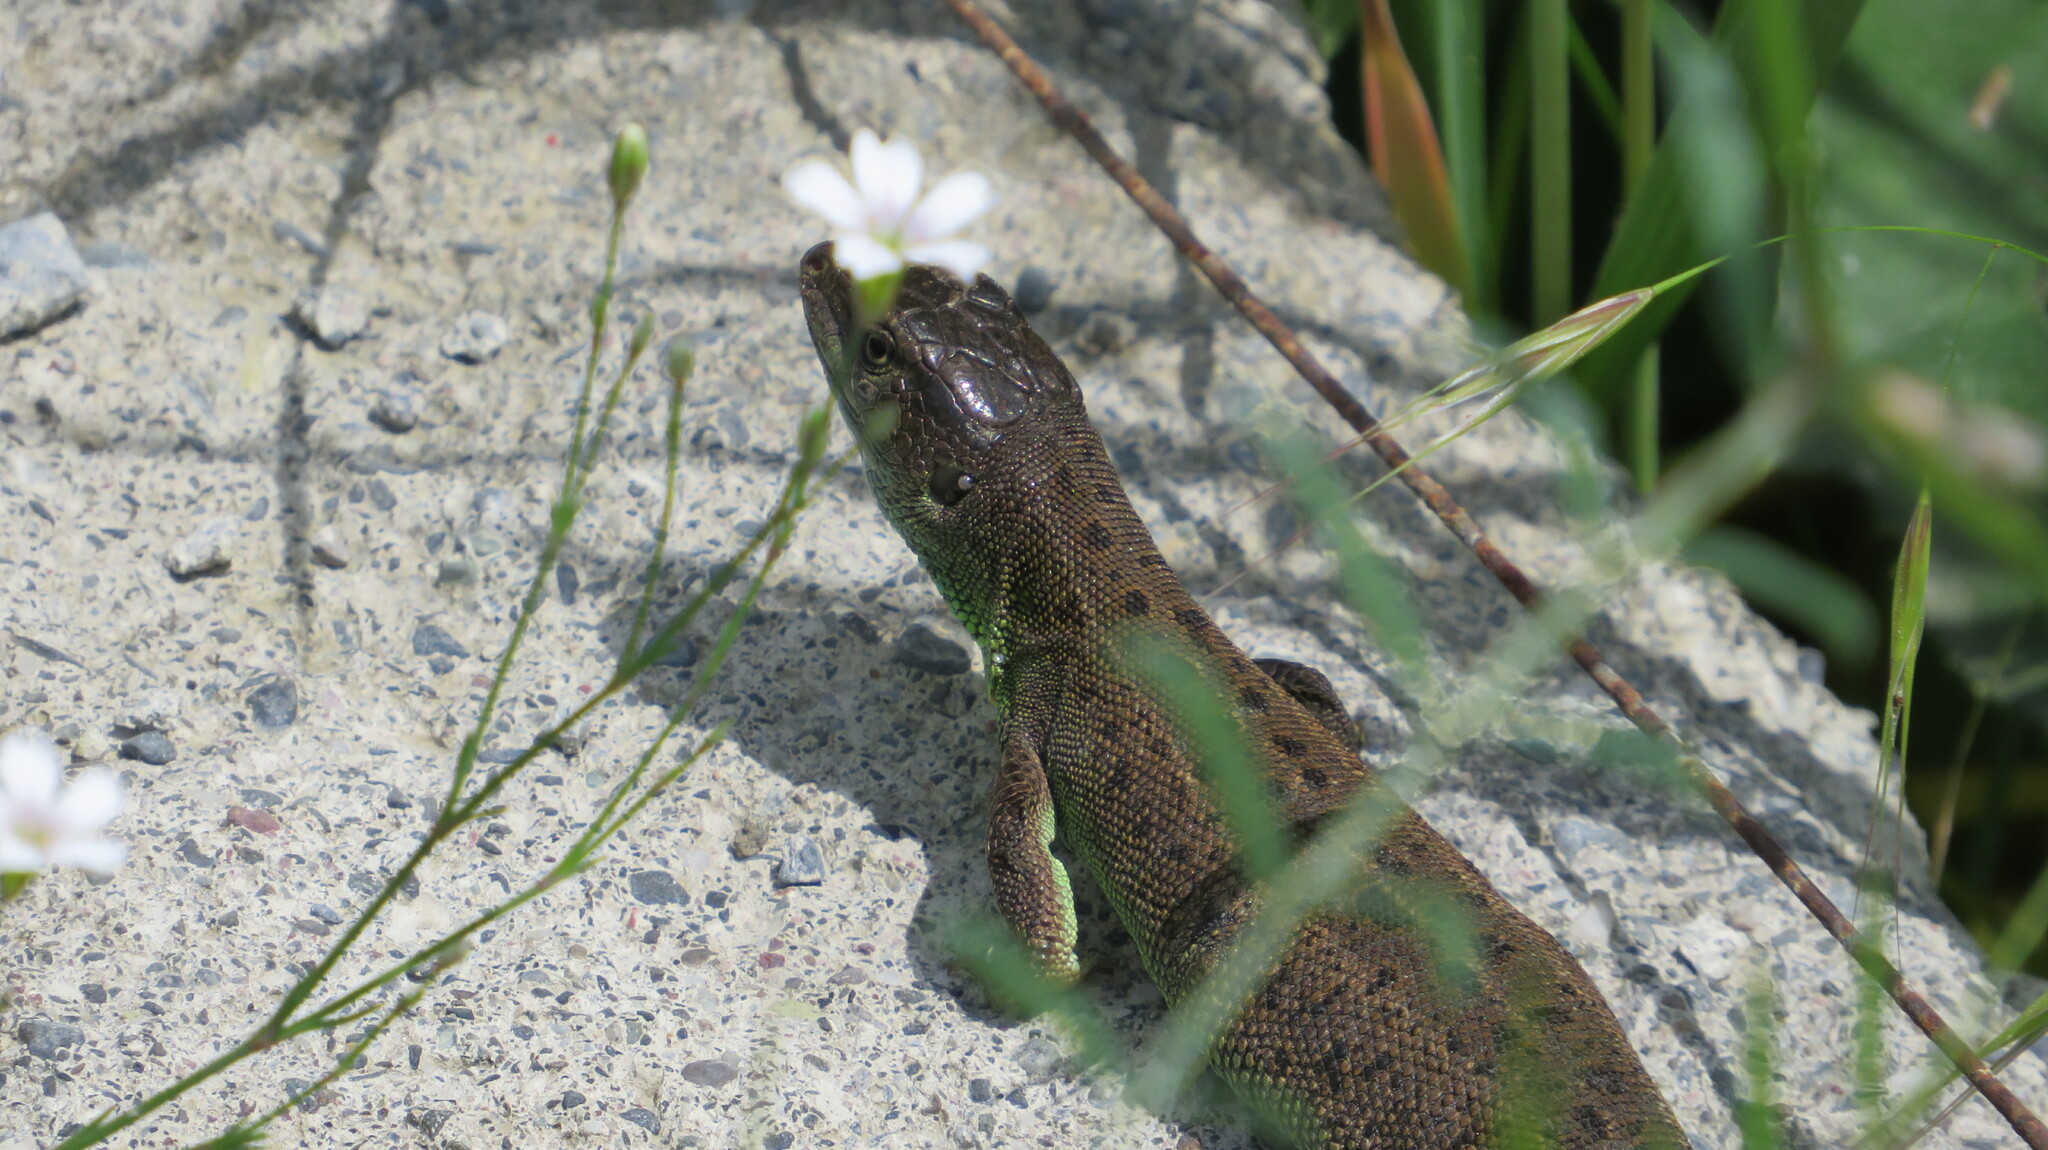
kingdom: Animalia
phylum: Chordata
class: Squamata
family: Lacertidae
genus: Lacerta
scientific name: Lacerta agilis
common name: Sand lizard
